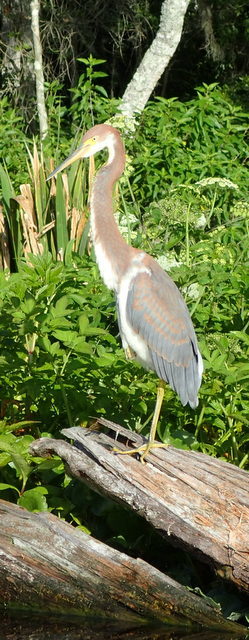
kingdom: Animalia
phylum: Chordata
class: Aves
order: Pelecaniformes
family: Ardeidae
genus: Egretta
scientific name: Egretta tricolor
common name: Tricolored heron
